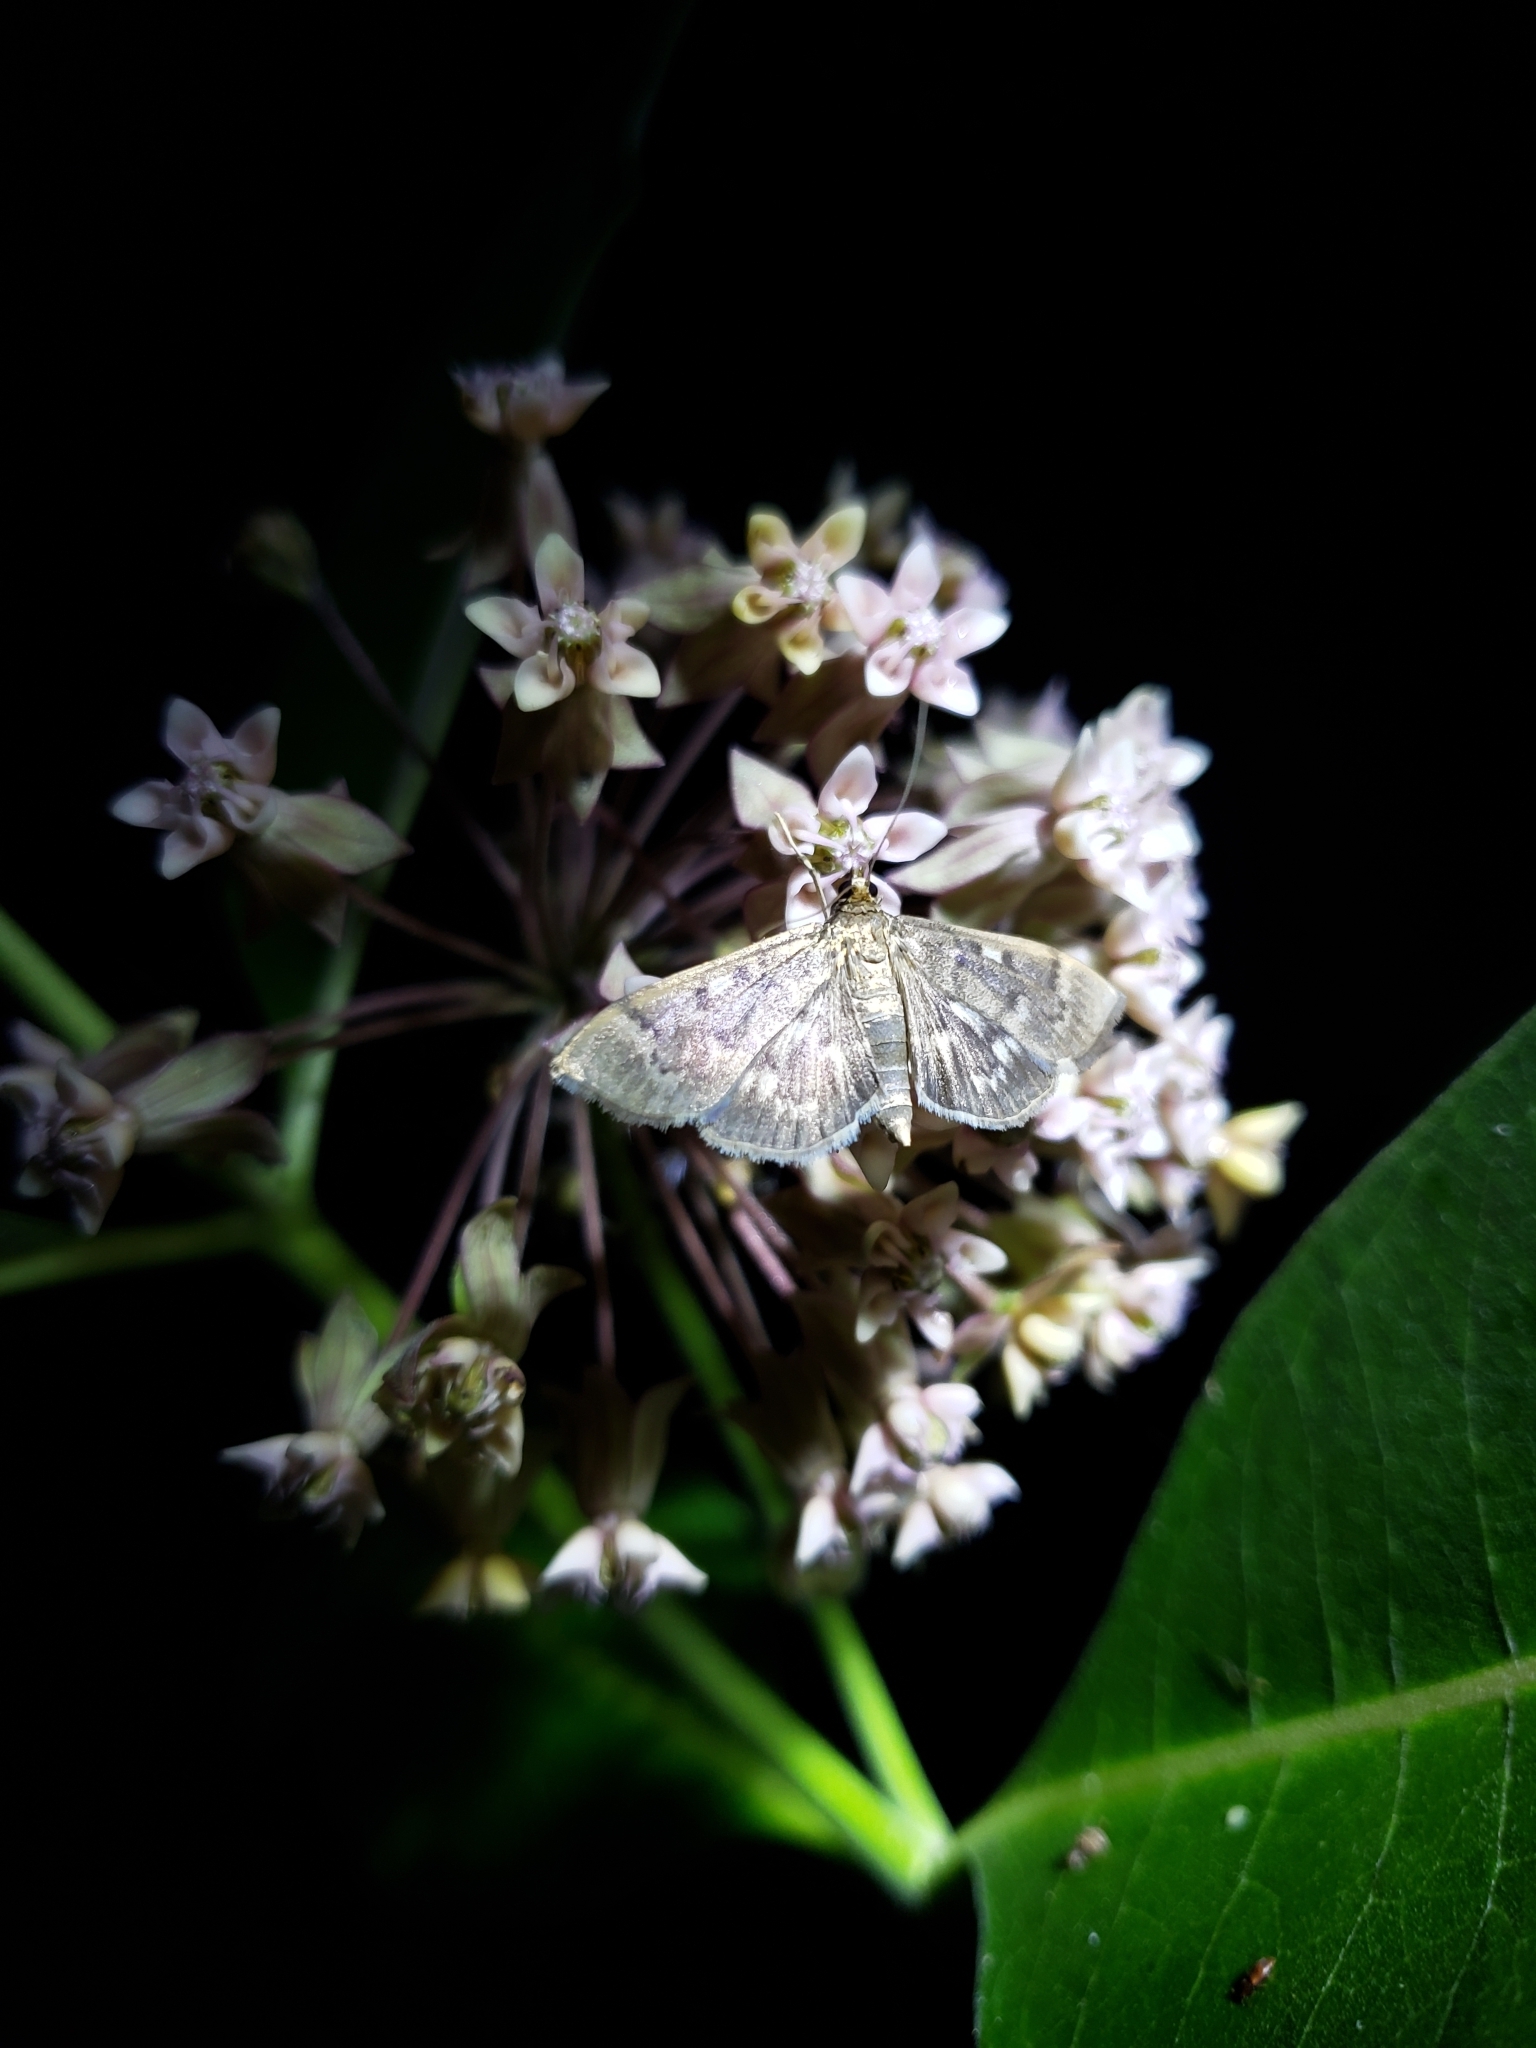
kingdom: Animalia
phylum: Arthropoda
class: Insecta
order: Lepidoptera
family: Crambidae
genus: Herpetogramma
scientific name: Herpetogramma aeglealis
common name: Serpentine webworm moth
